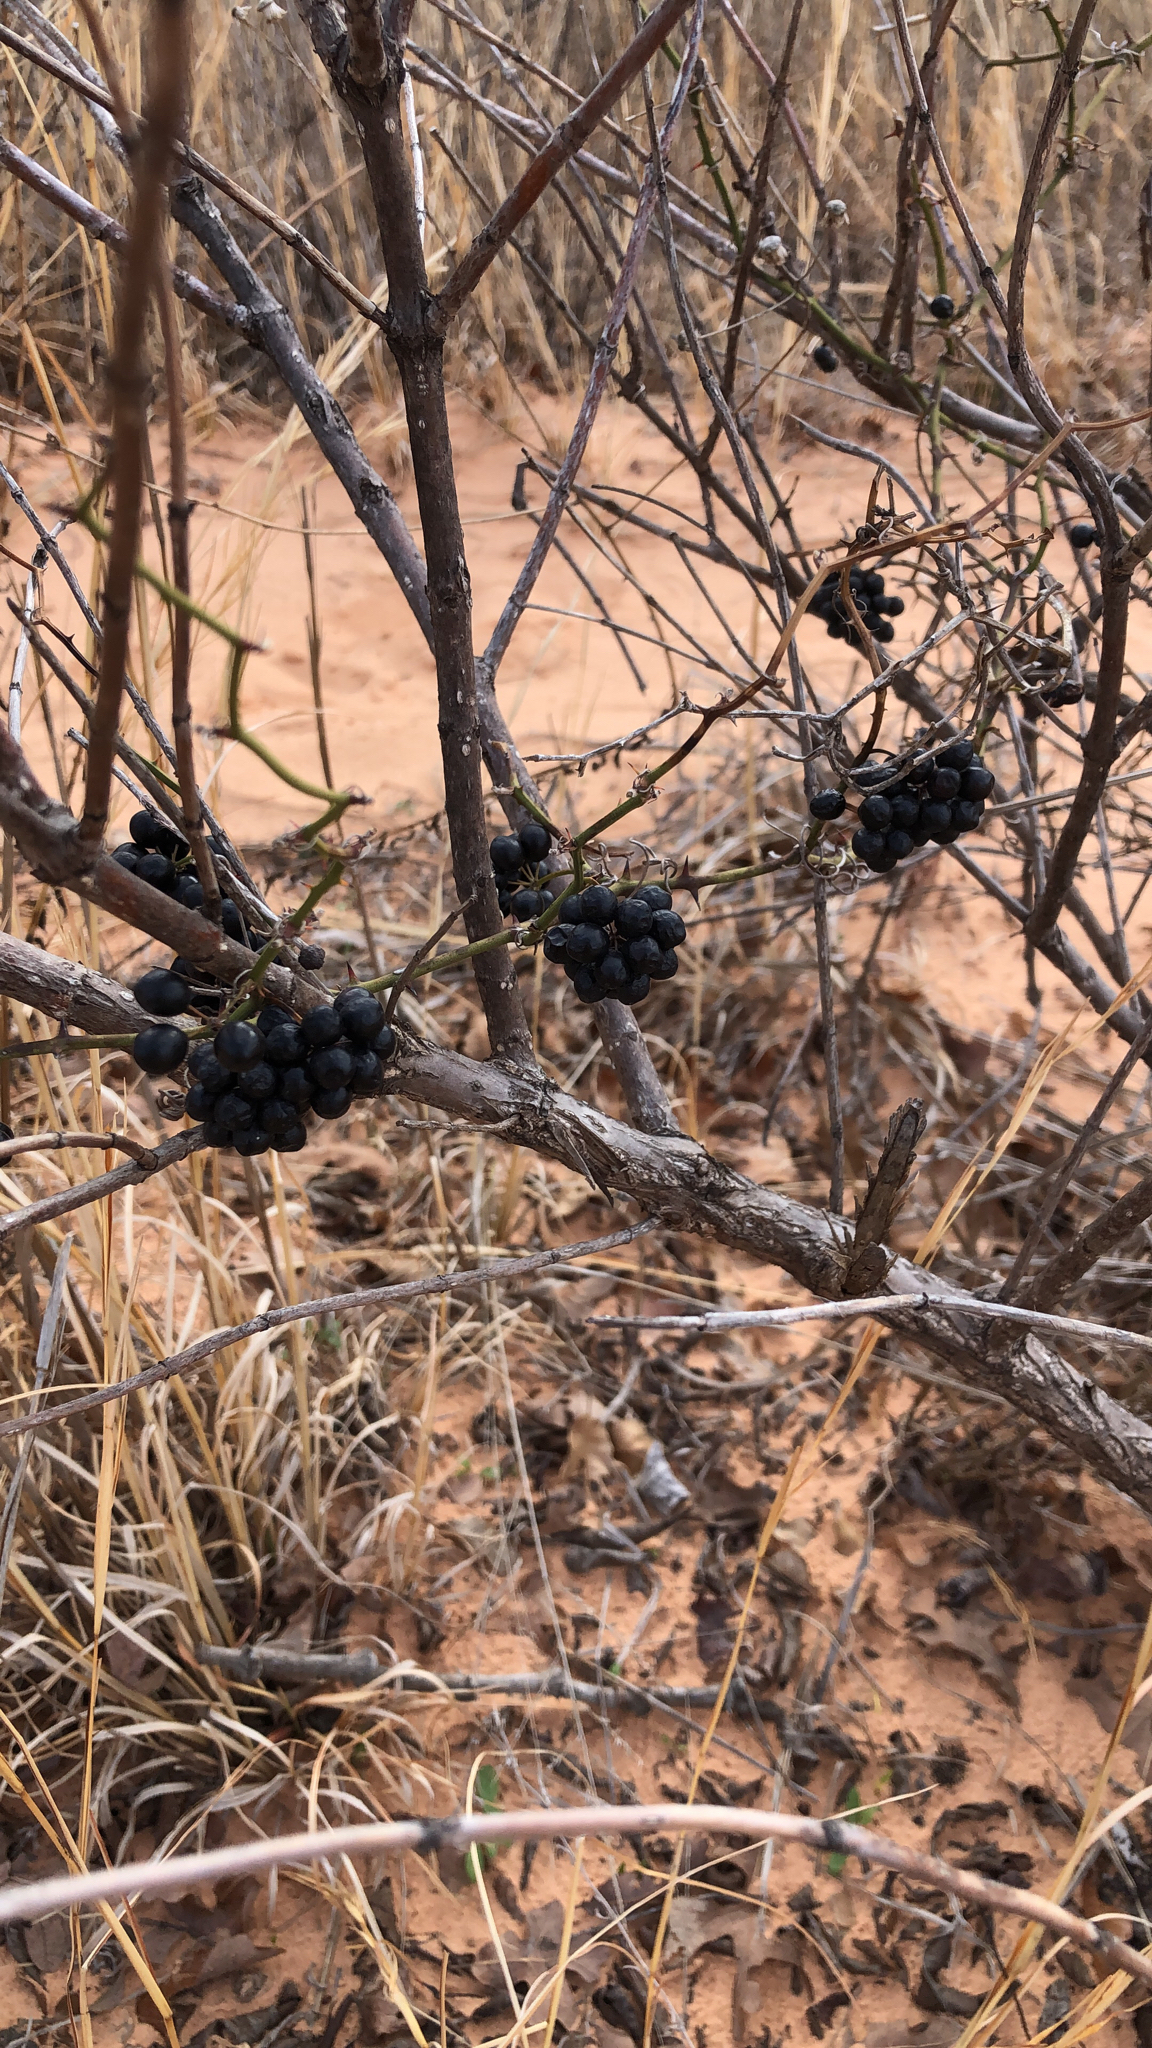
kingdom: Plantae
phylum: Tracheophyta
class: Liliopsida
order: Liliales
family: Smilacaceae
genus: Smilax
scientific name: Smilax bona-nox
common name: Catbrier
